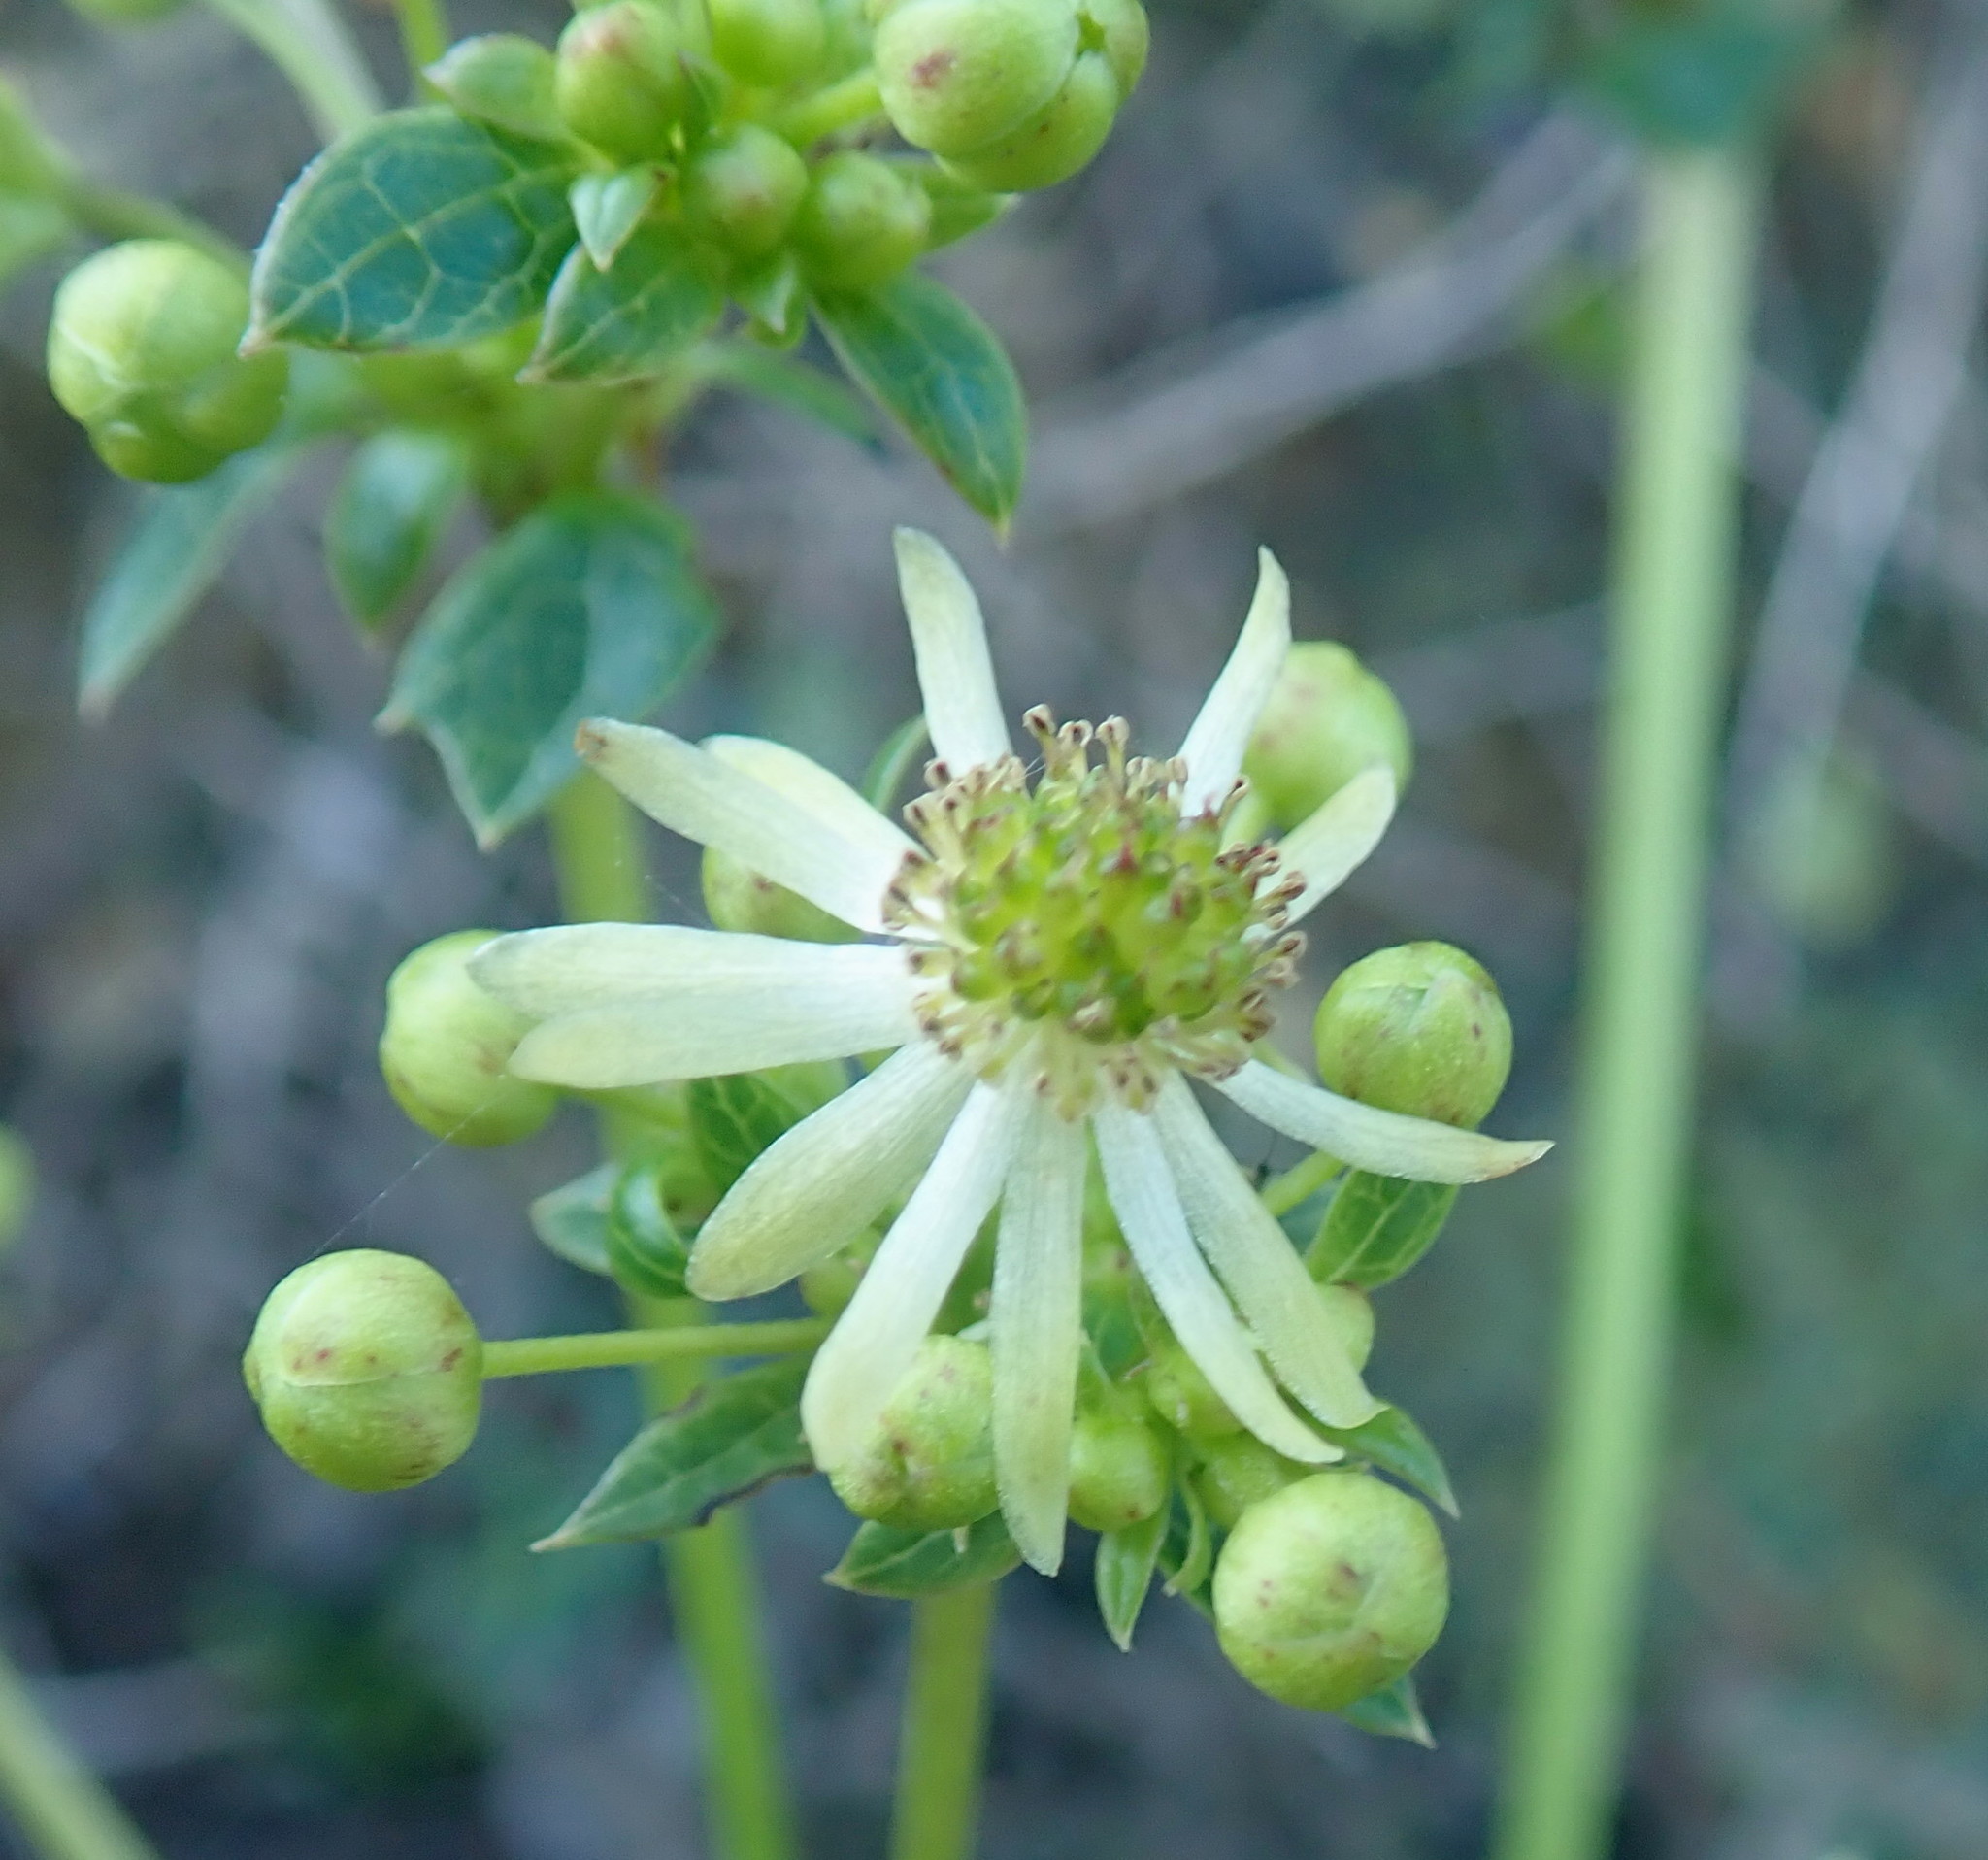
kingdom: Plantae
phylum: Tracheophyta
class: Magnoliopsida
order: Ranunculales
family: Ranunculaceae
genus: Knowltonia
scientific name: Knowltonia vesicatoria
